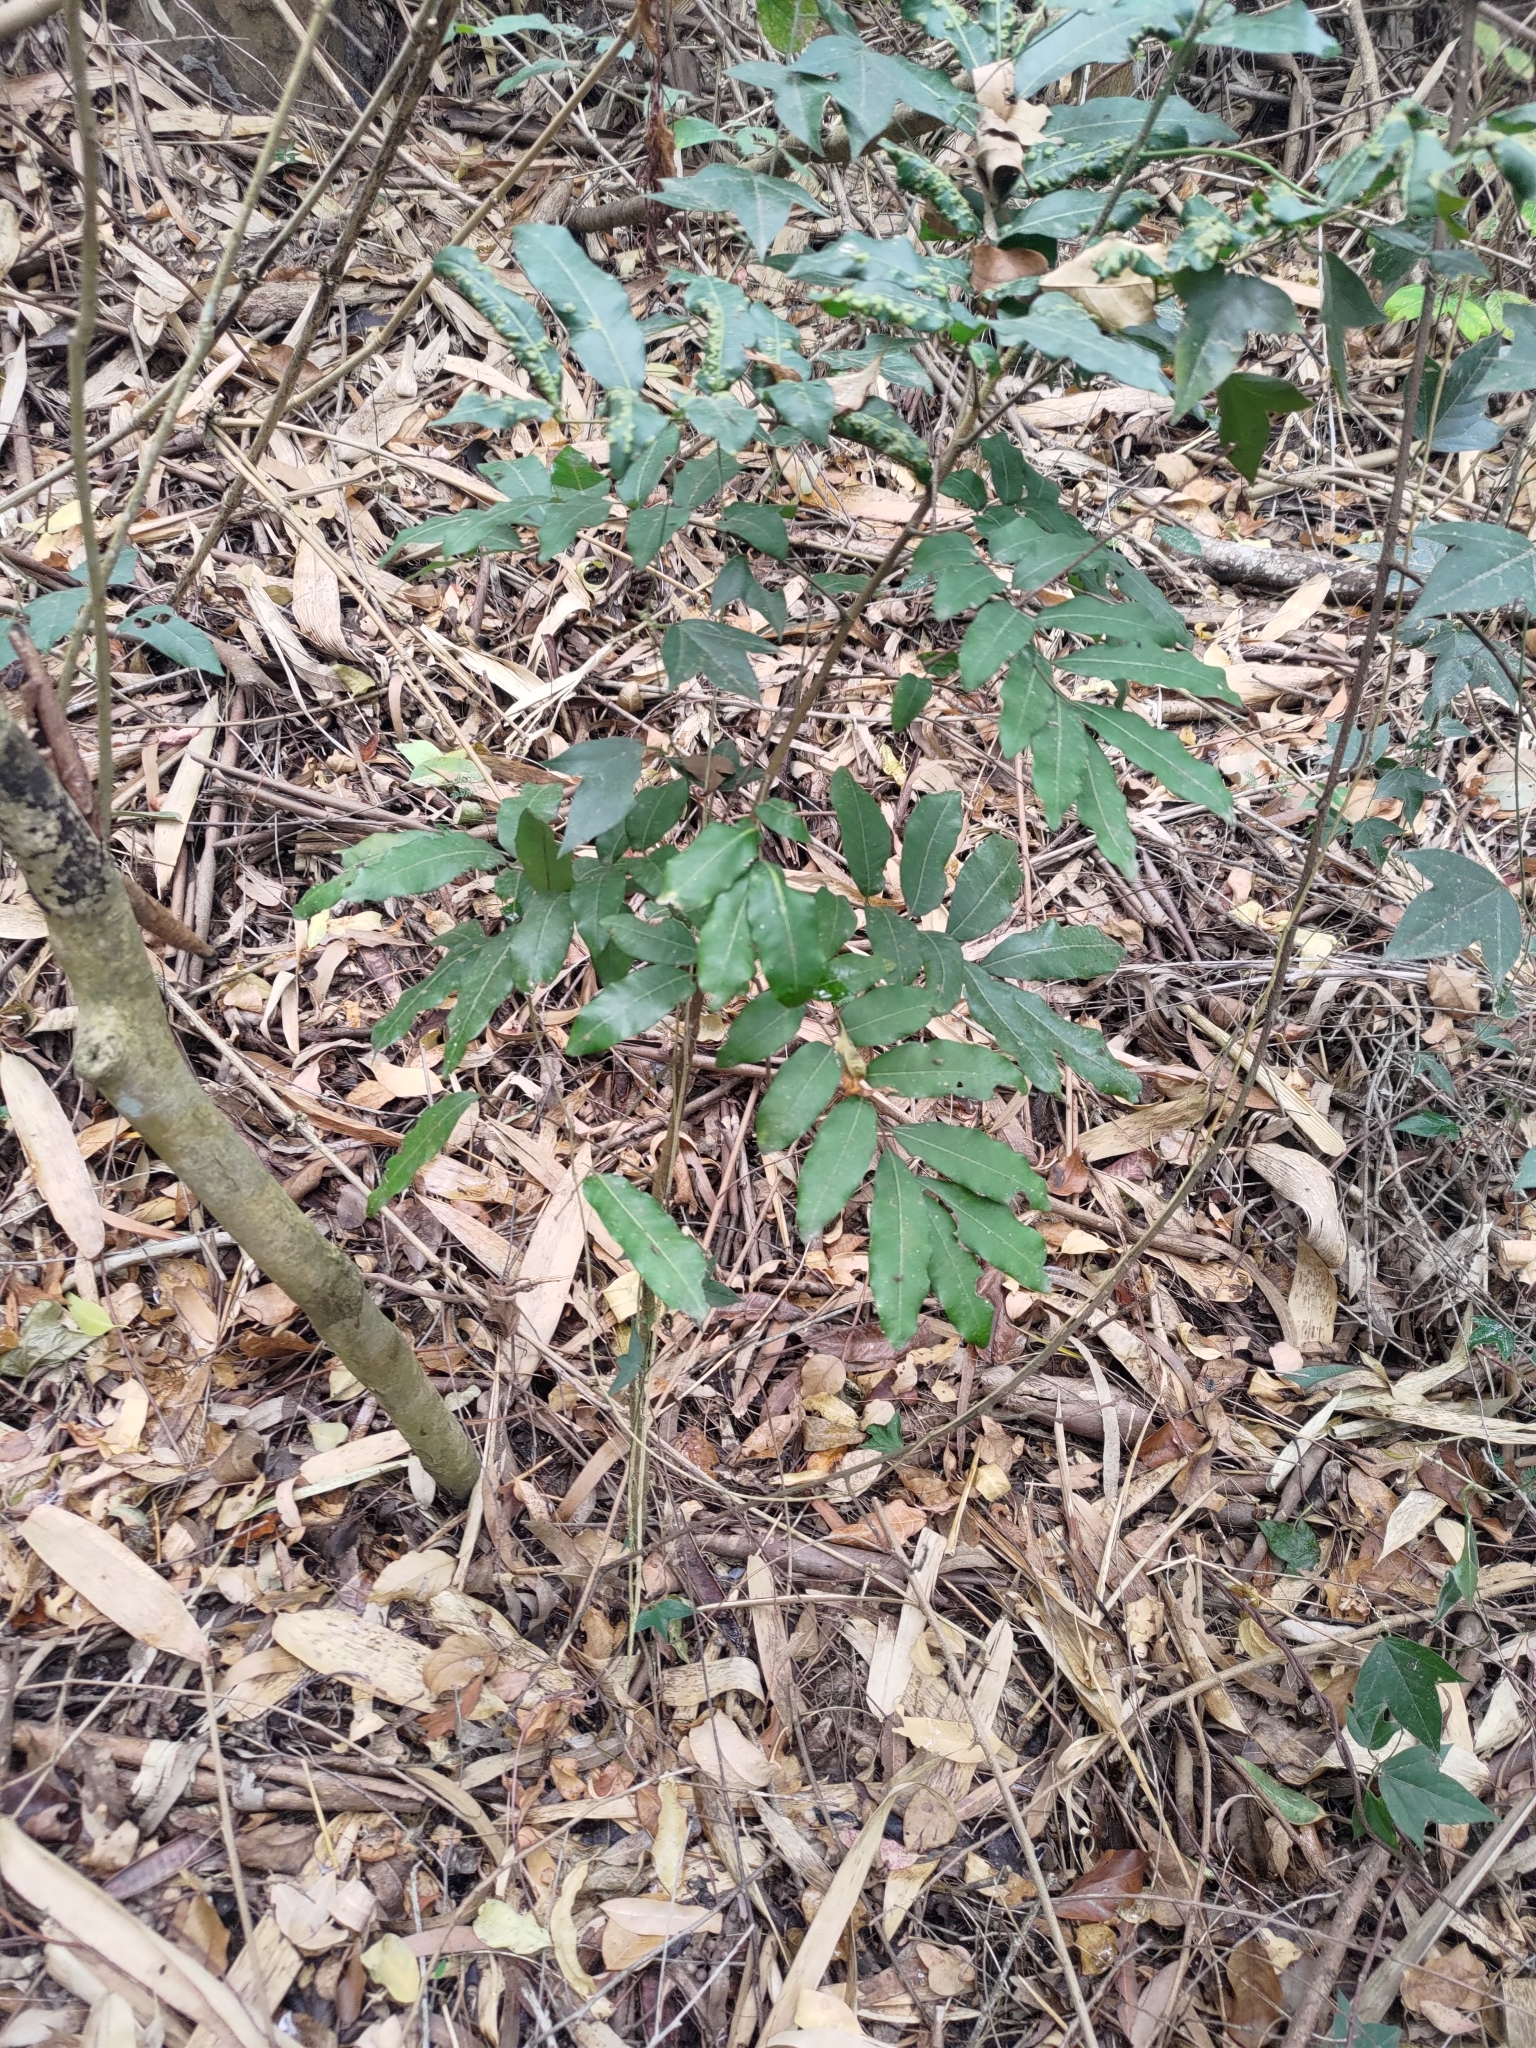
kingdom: Plantae
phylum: Tracheophyta
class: Magnoliopsida
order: Sapindales
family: Sapindaceae
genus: Dimocarpus
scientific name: Dimocarpus longan
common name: Longan
